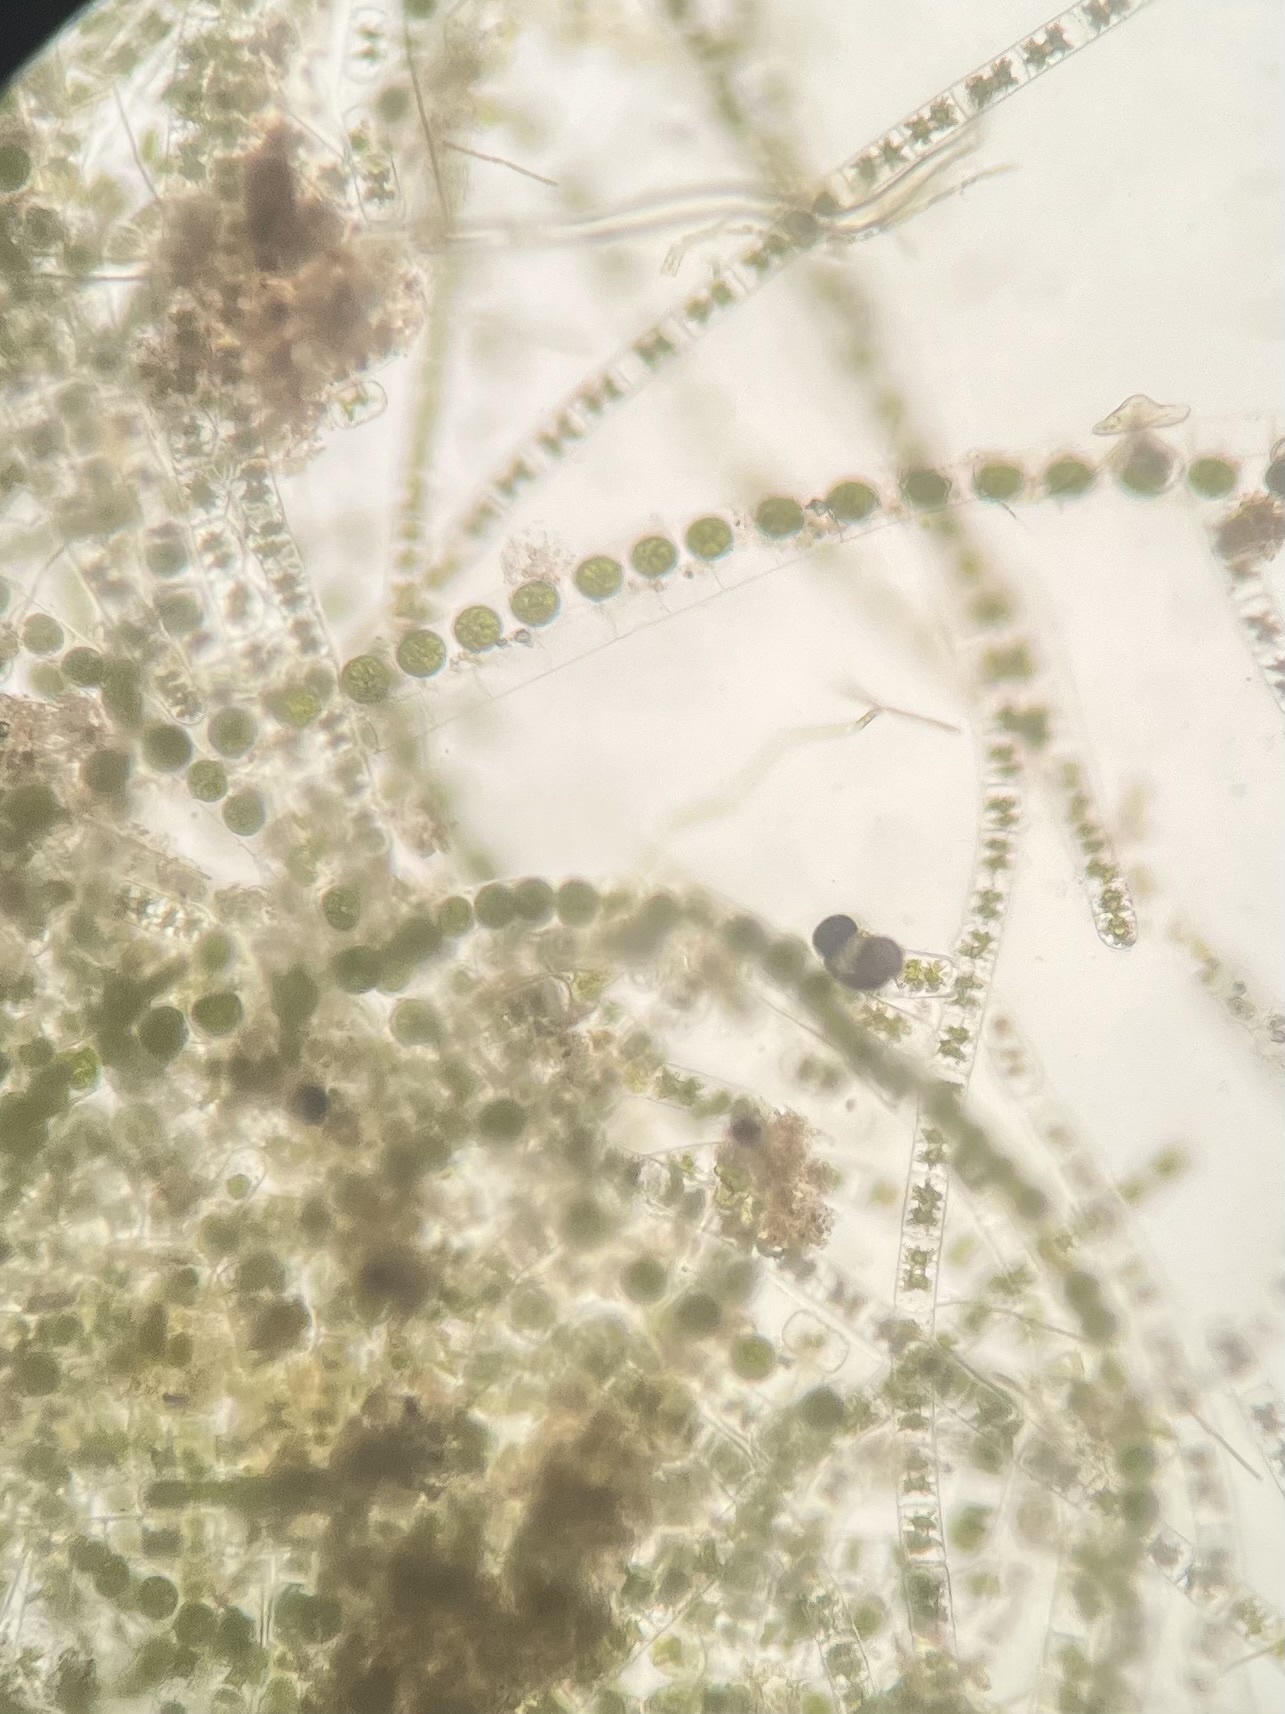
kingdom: Plantae
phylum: Charophyta
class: Zygnematophyceae
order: Zygnematales
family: Zygnemataceae
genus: Zygnema
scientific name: Zygnema
